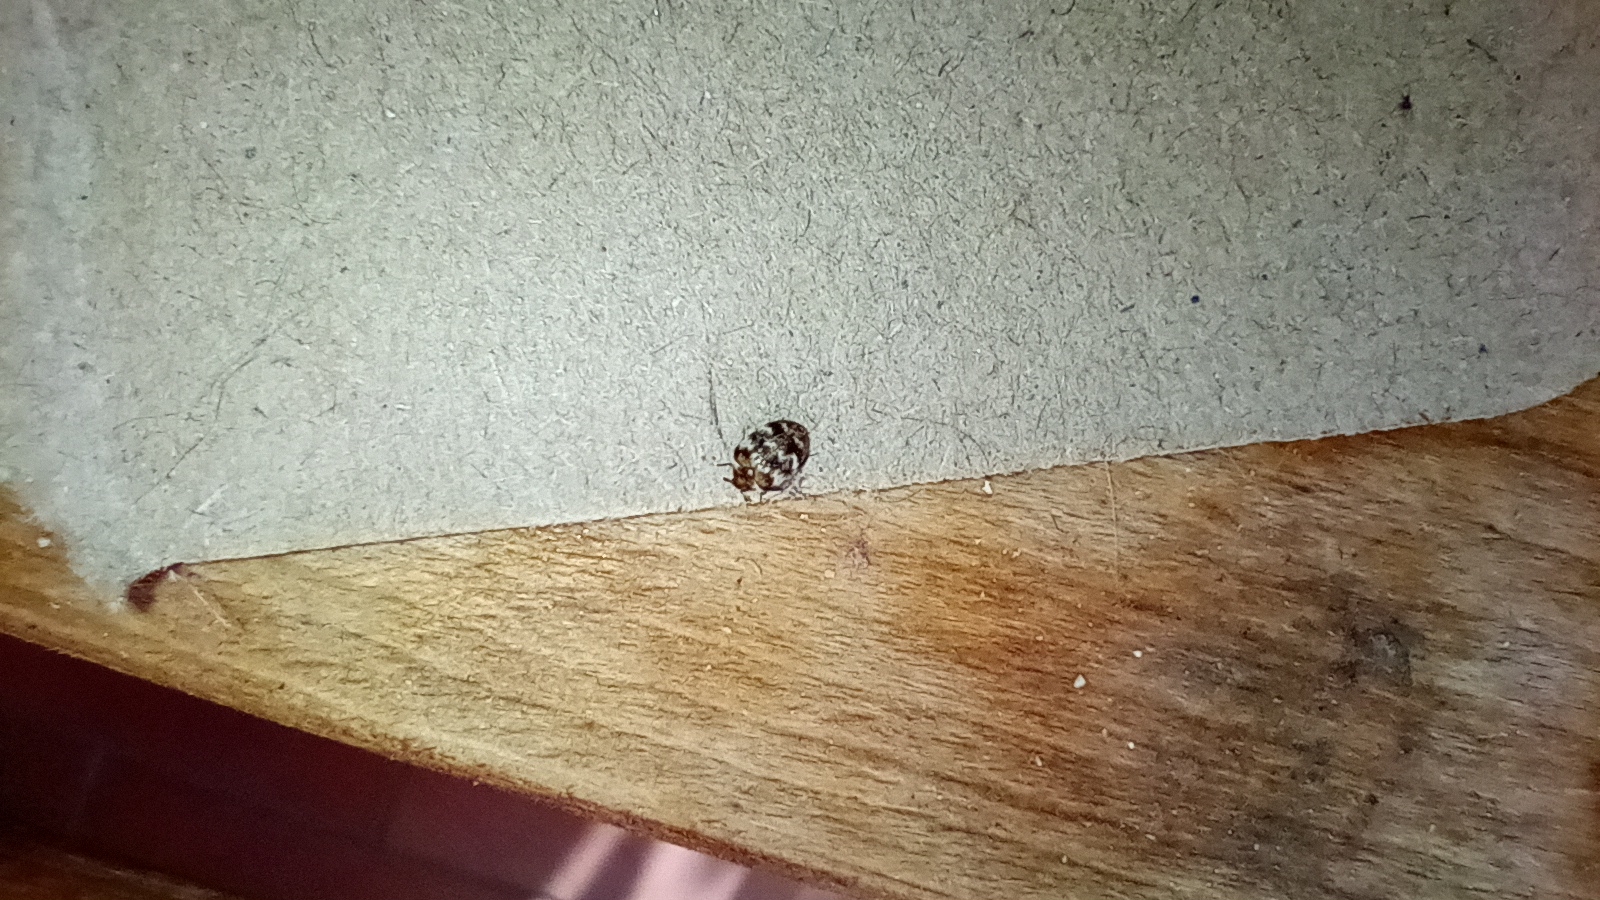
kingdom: Animalia
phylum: Arthropoda
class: Insecta
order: Coleoptera
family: Dermestidae
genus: Anthrenus
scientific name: Anthrenus verbasci
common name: Varied carpet beetle
